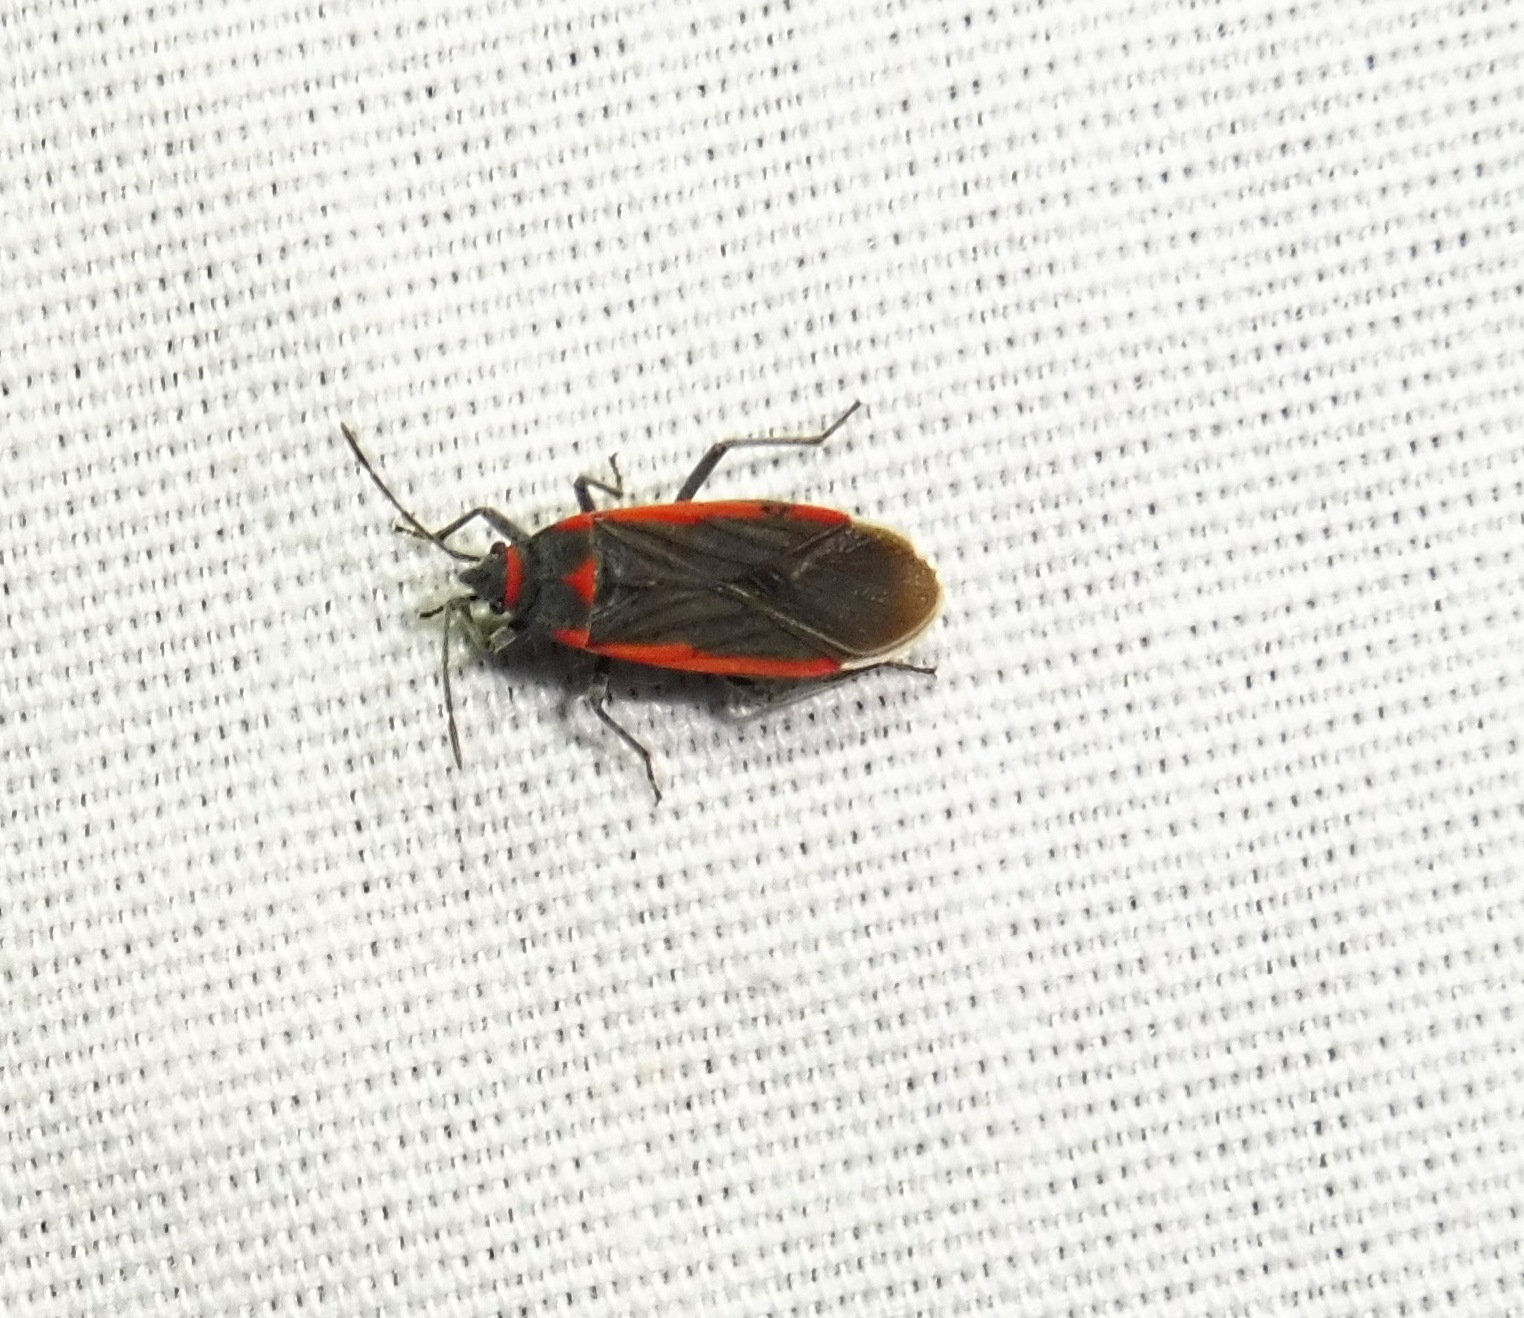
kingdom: Animalia
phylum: Arthropoda
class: Insecta
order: Hemiptera
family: Lygaeidae
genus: Melacoryphus
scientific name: Melacoryphus lateralis
